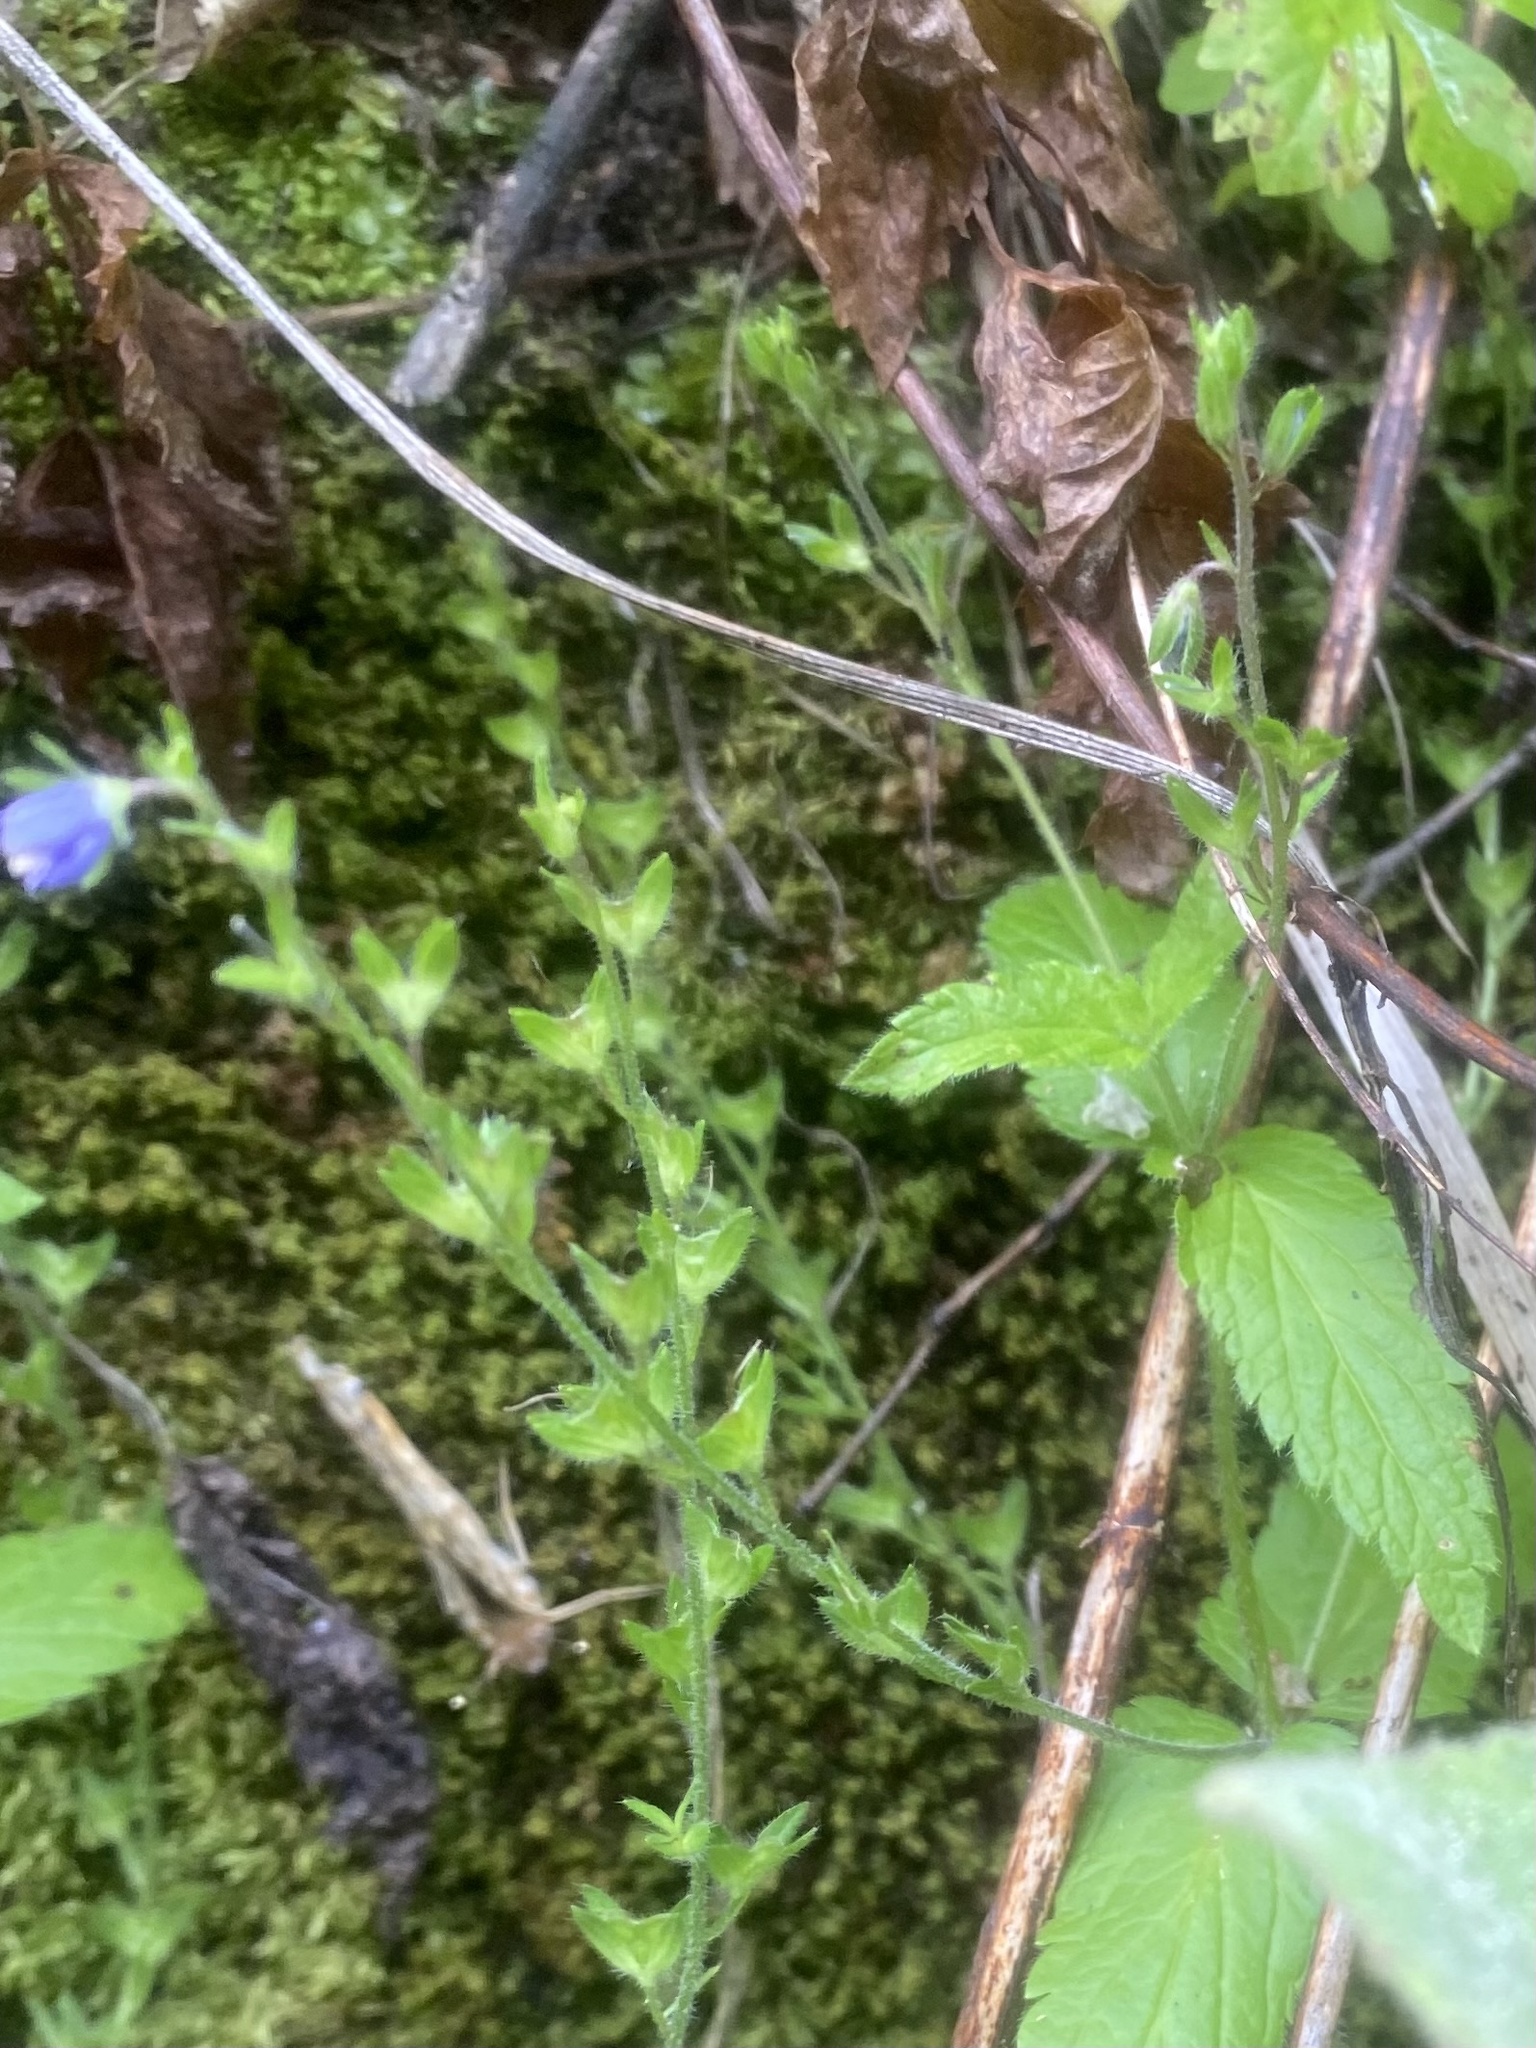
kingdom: Plantae
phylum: Tracheophyta
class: Magnoliopsida
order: Lamiales
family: Plantaginaceae
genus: Veronica
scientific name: Veronica magna
